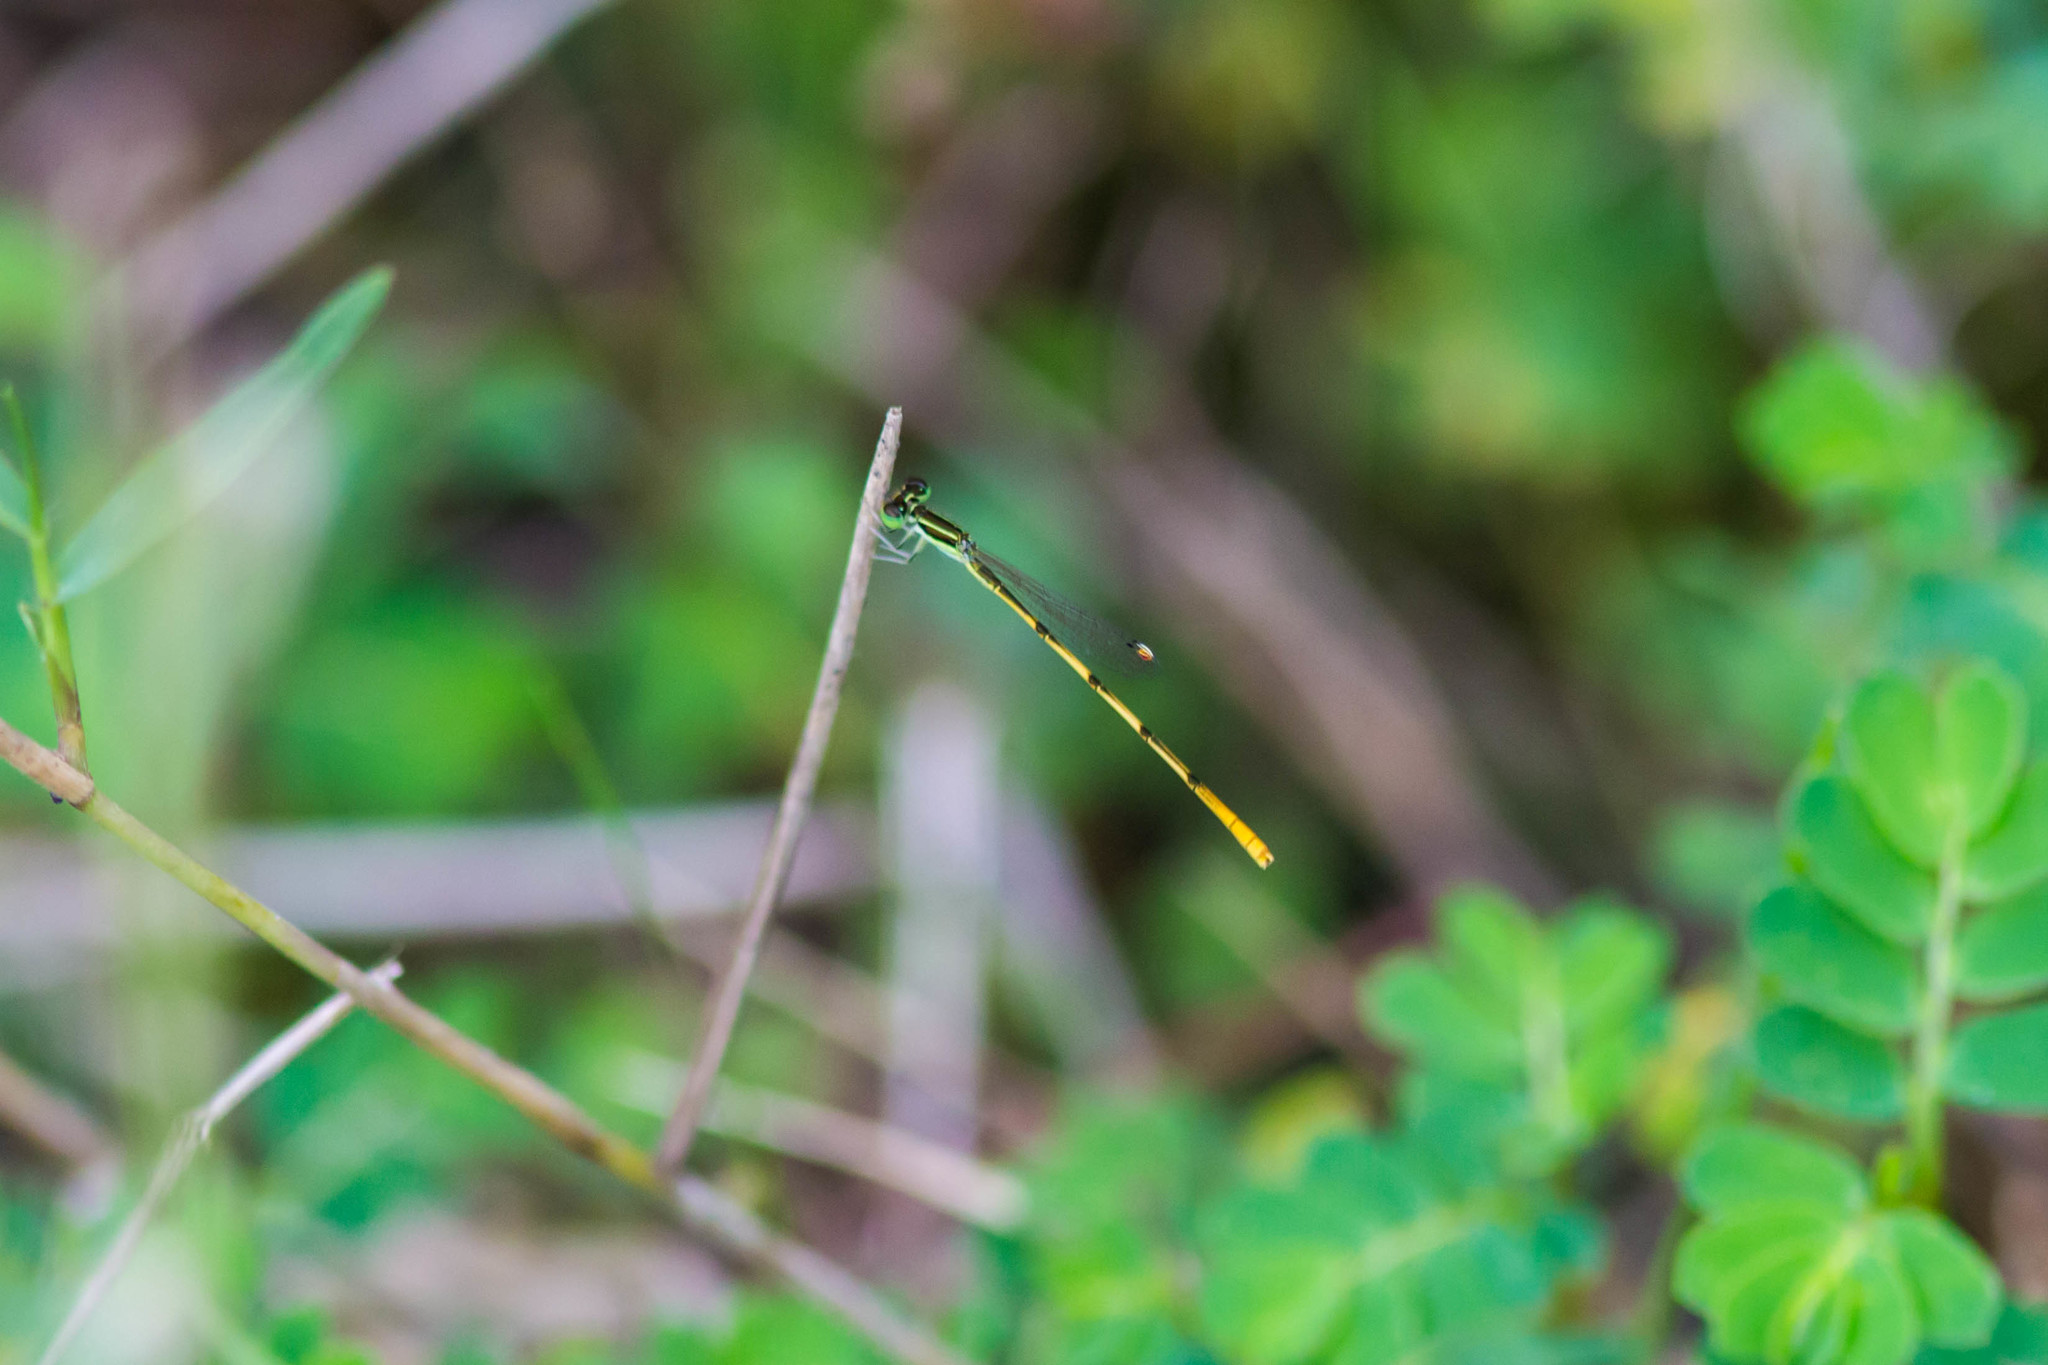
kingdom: Animalia
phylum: Arthropoda
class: Insecta
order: Odonata
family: Coenagrionidae
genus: Ischnura
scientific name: Ischnura hastata
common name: Citrine forktail
